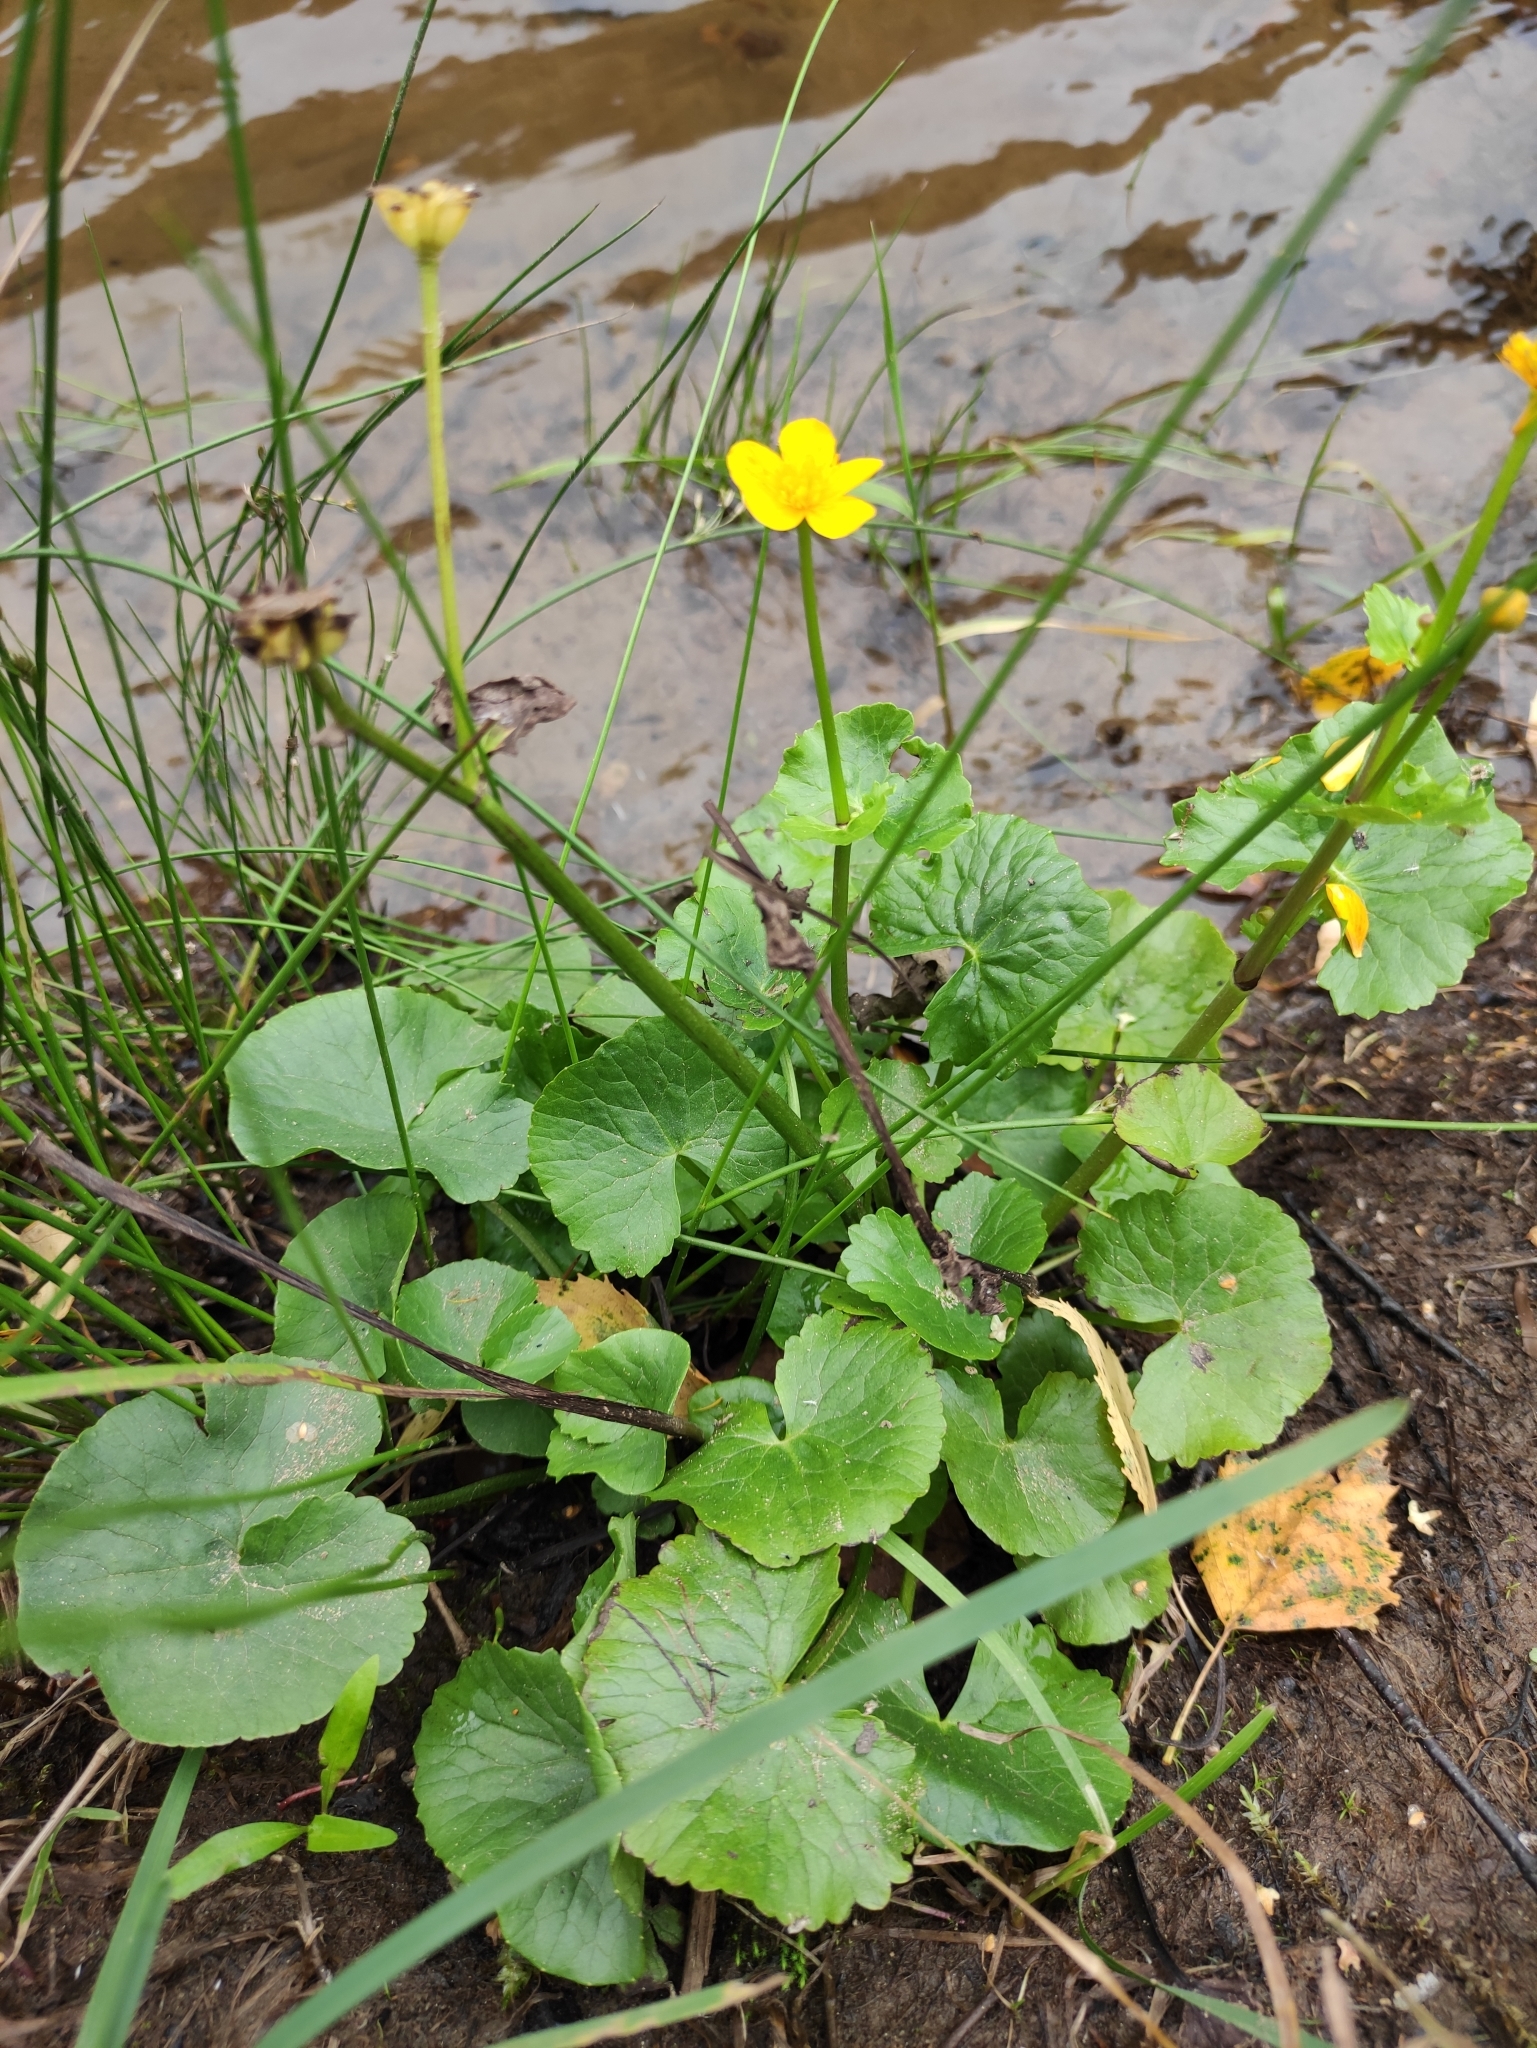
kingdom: Plantae
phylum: Tracheophyta
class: Magnoliopsida
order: Ranunculales
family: Ranunculaceae
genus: Caltha
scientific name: Caltha palustris
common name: Marsh marigold
